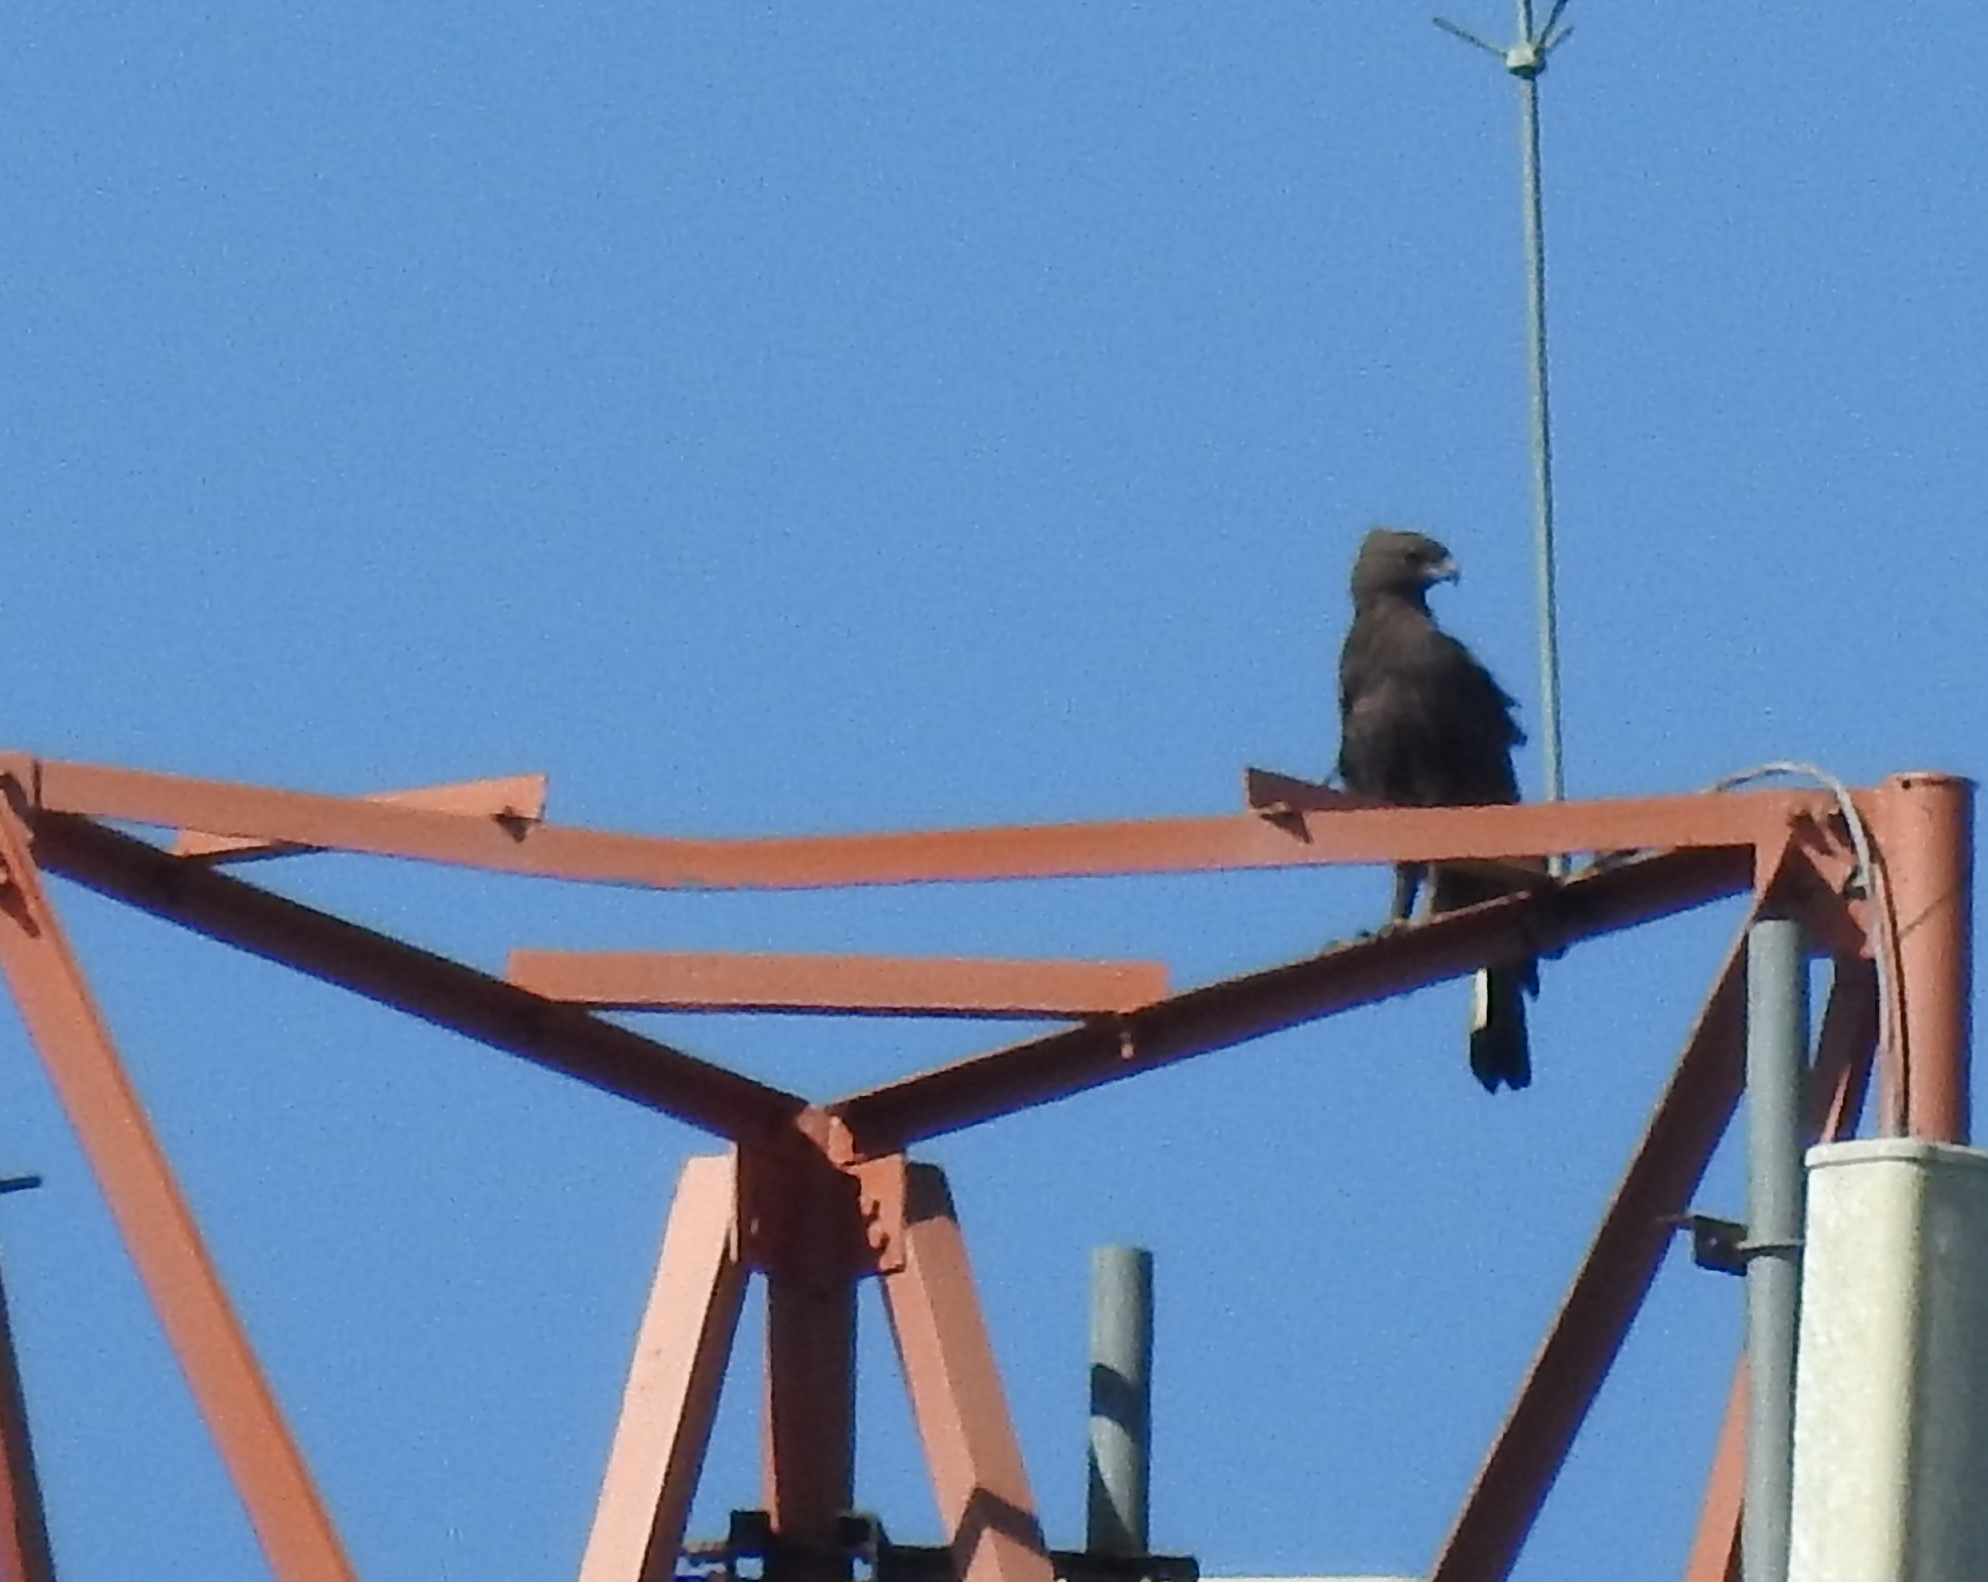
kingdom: Animalia
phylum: Chordata
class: Aves
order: Accipitriformes
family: Accipitridae
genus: Nisaetus
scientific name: Nisaetus cirrhatus
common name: Changeable hawk-eagle
